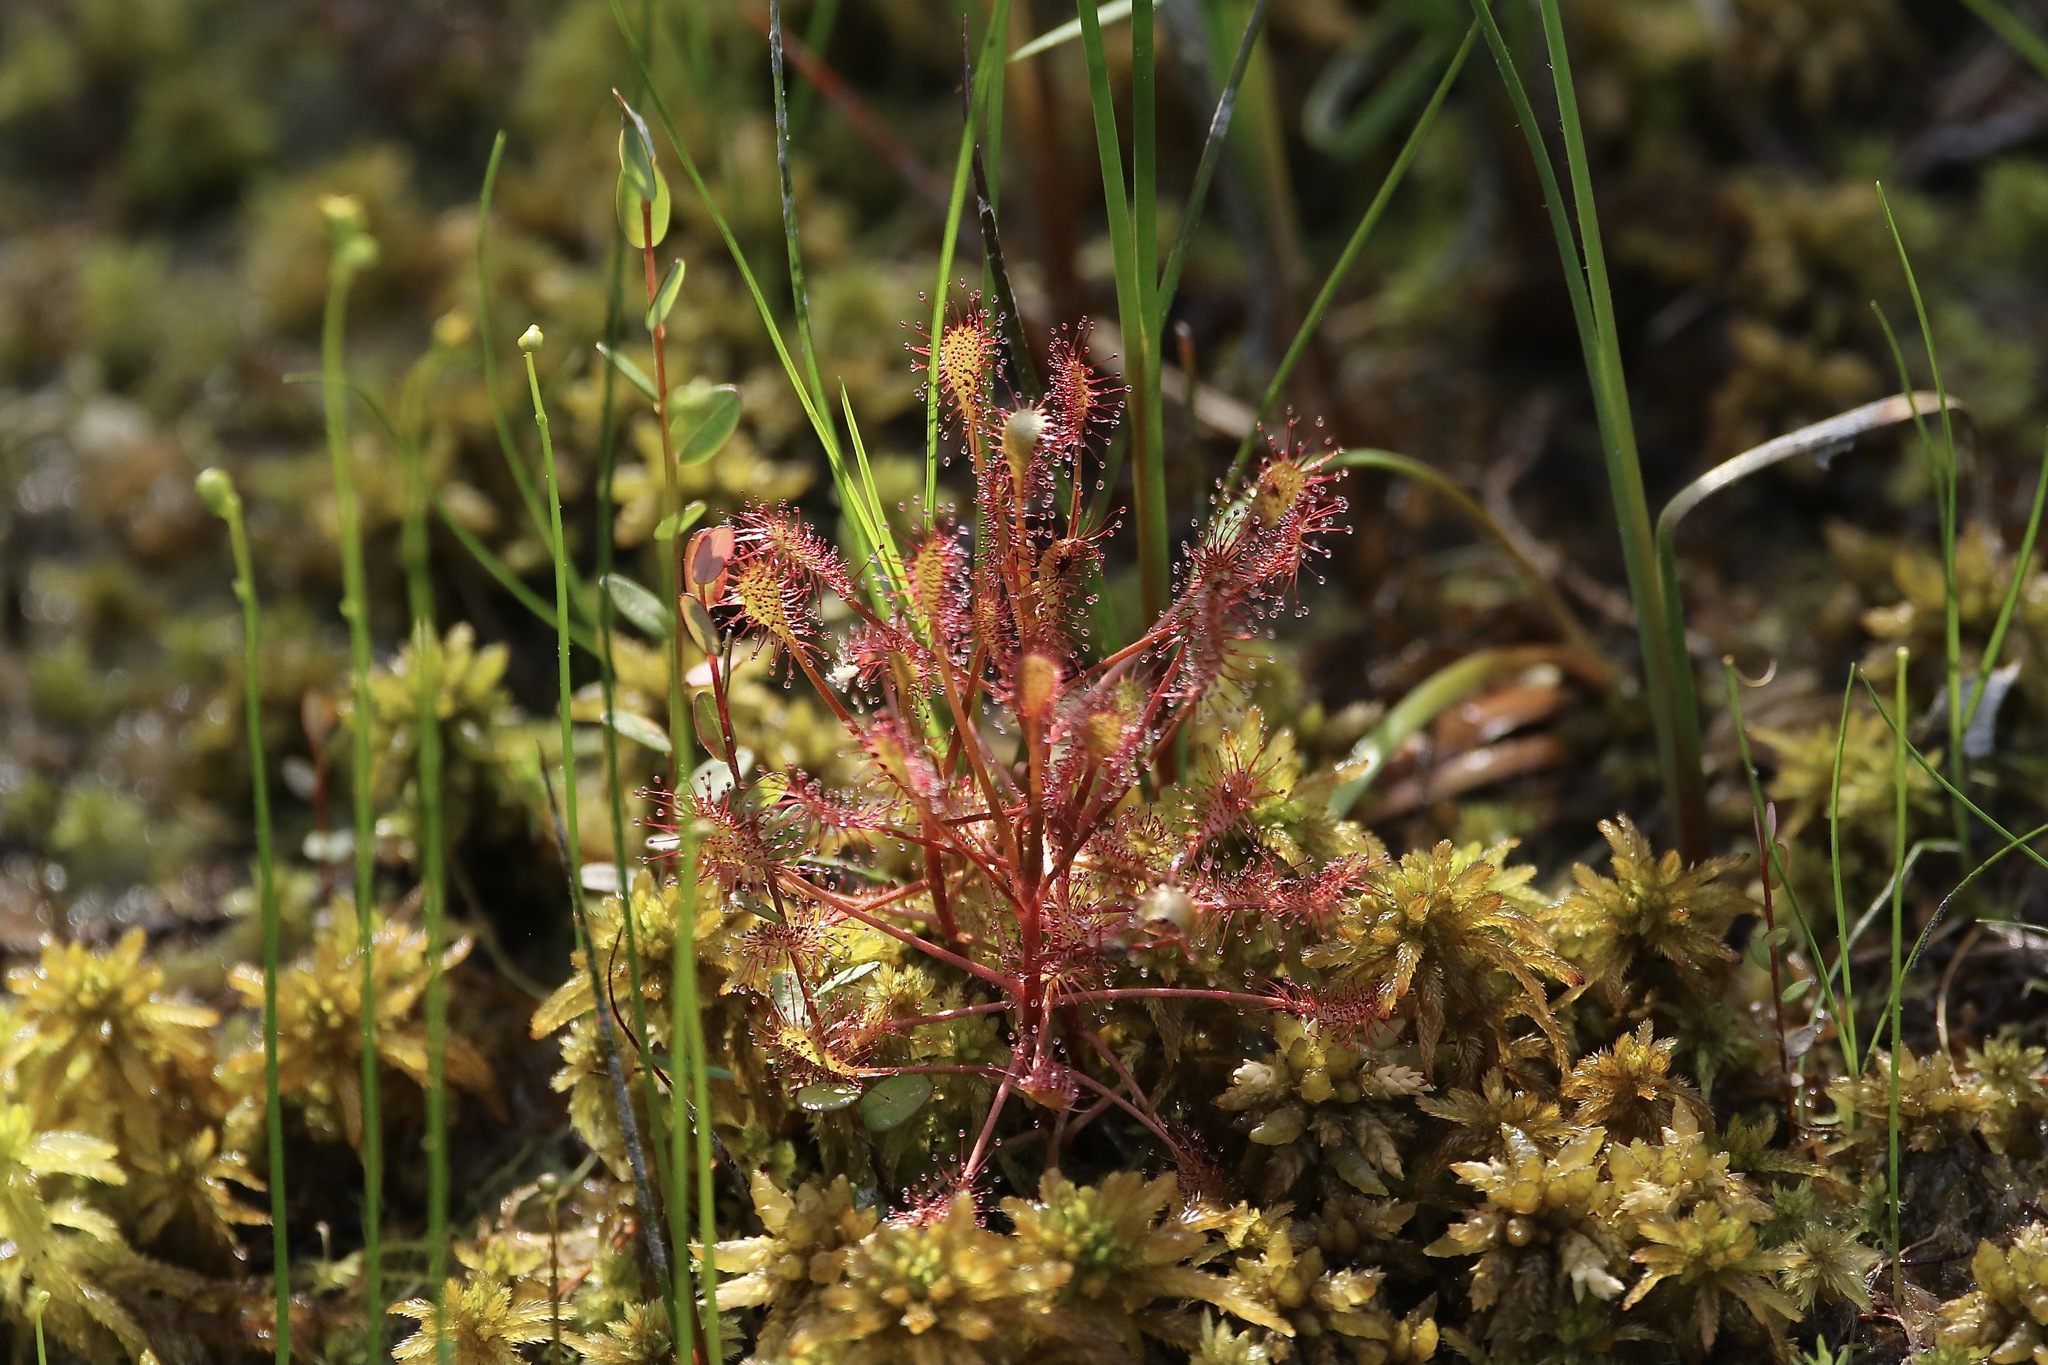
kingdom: Plantae
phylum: Tracheophyta
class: Magnoliopsida
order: Caryophyllales
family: Droseraceae
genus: Drosera
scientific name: Drosera intermedia
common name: Oblong-leaved sundew
